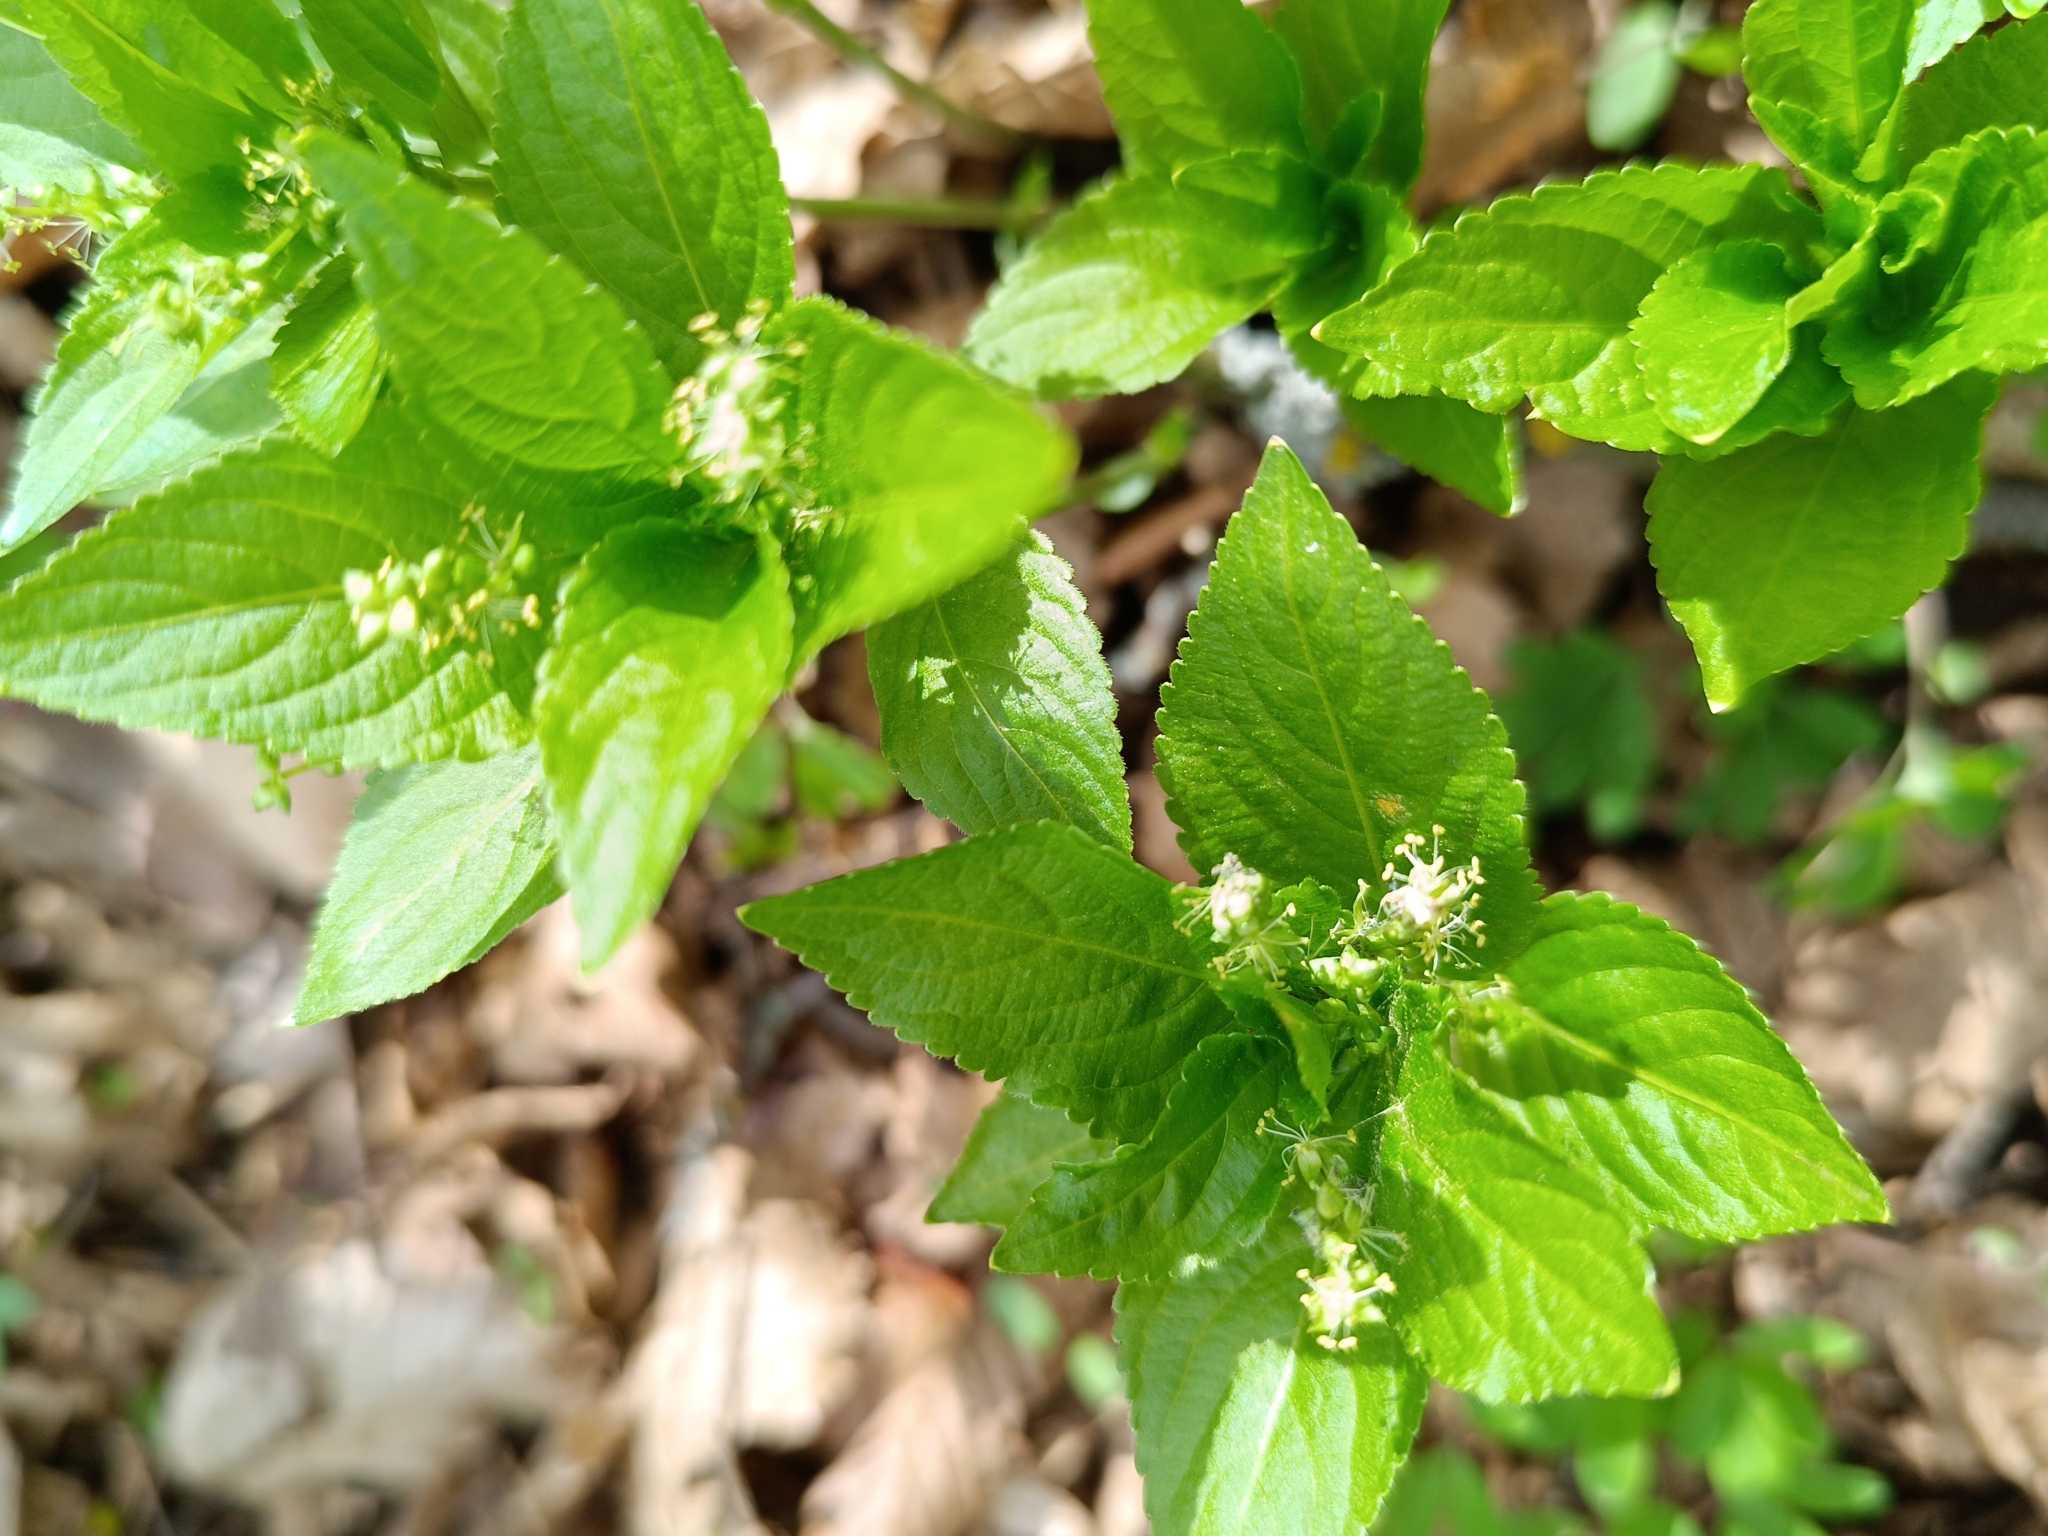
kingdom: Plantae
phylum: Tracheophyta
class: Magnoliopsida
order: Malpighiales
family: Euphorbiaceae
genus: Mercurialis
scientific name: Mercurialis perennis
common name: Dog mercury
